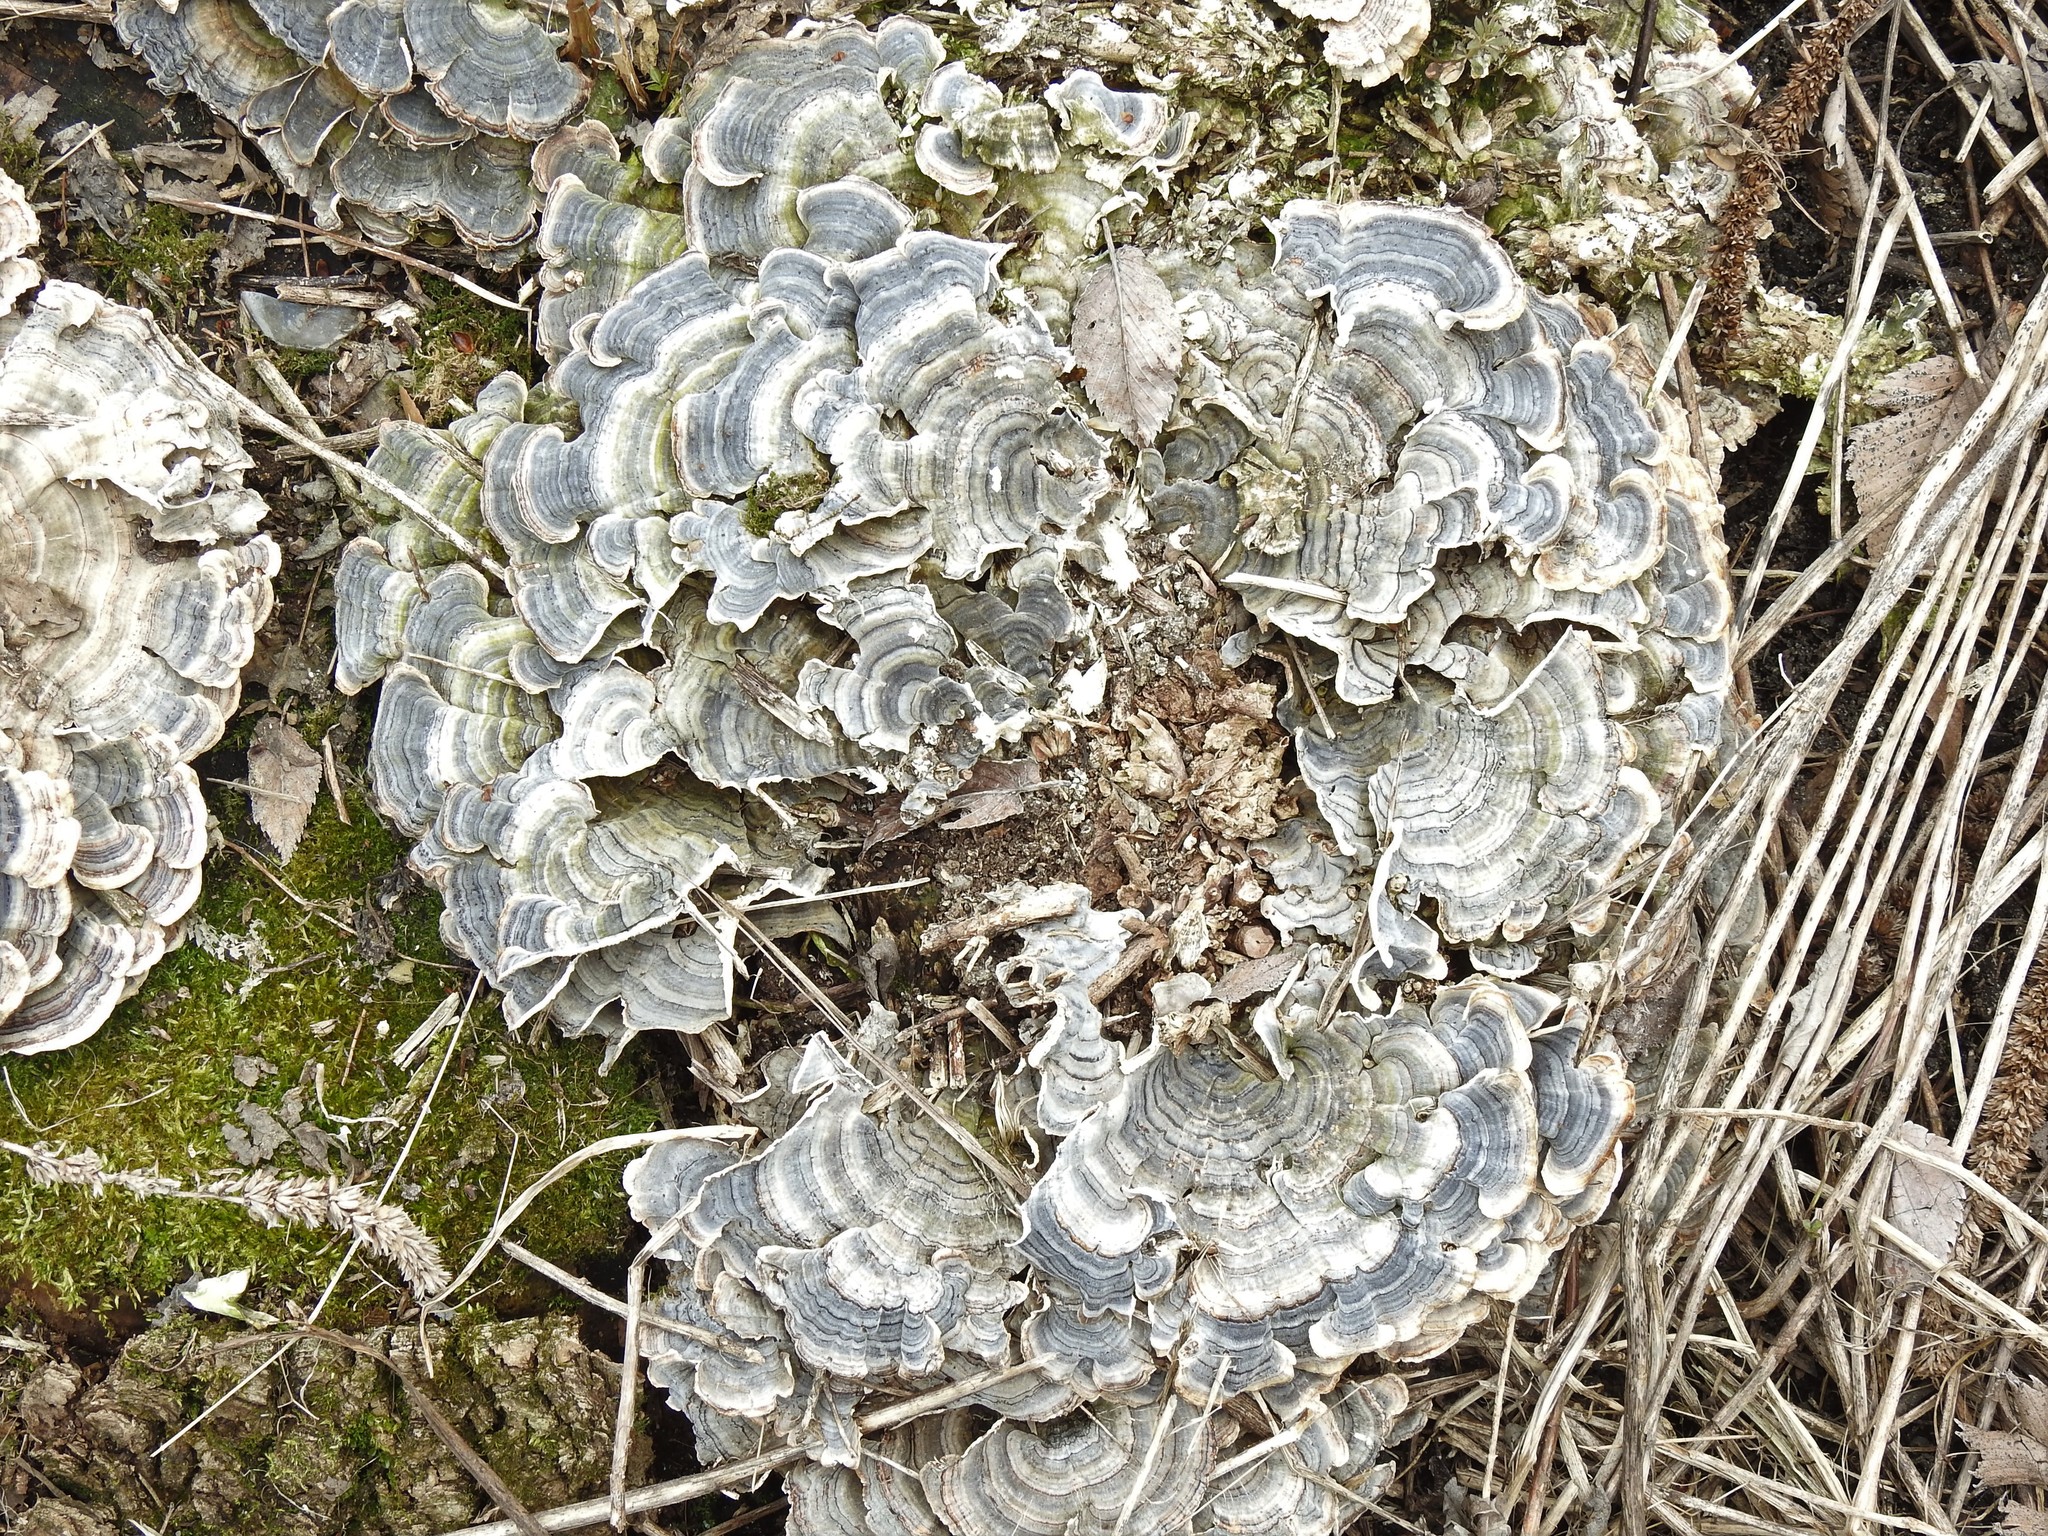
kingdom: Fungi
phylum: Basidiomycota
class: Agaricomycetes
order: Polyporales
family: Polyporaceae
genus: Trametes
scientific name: Trametes versicolor
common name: Turkeytail
